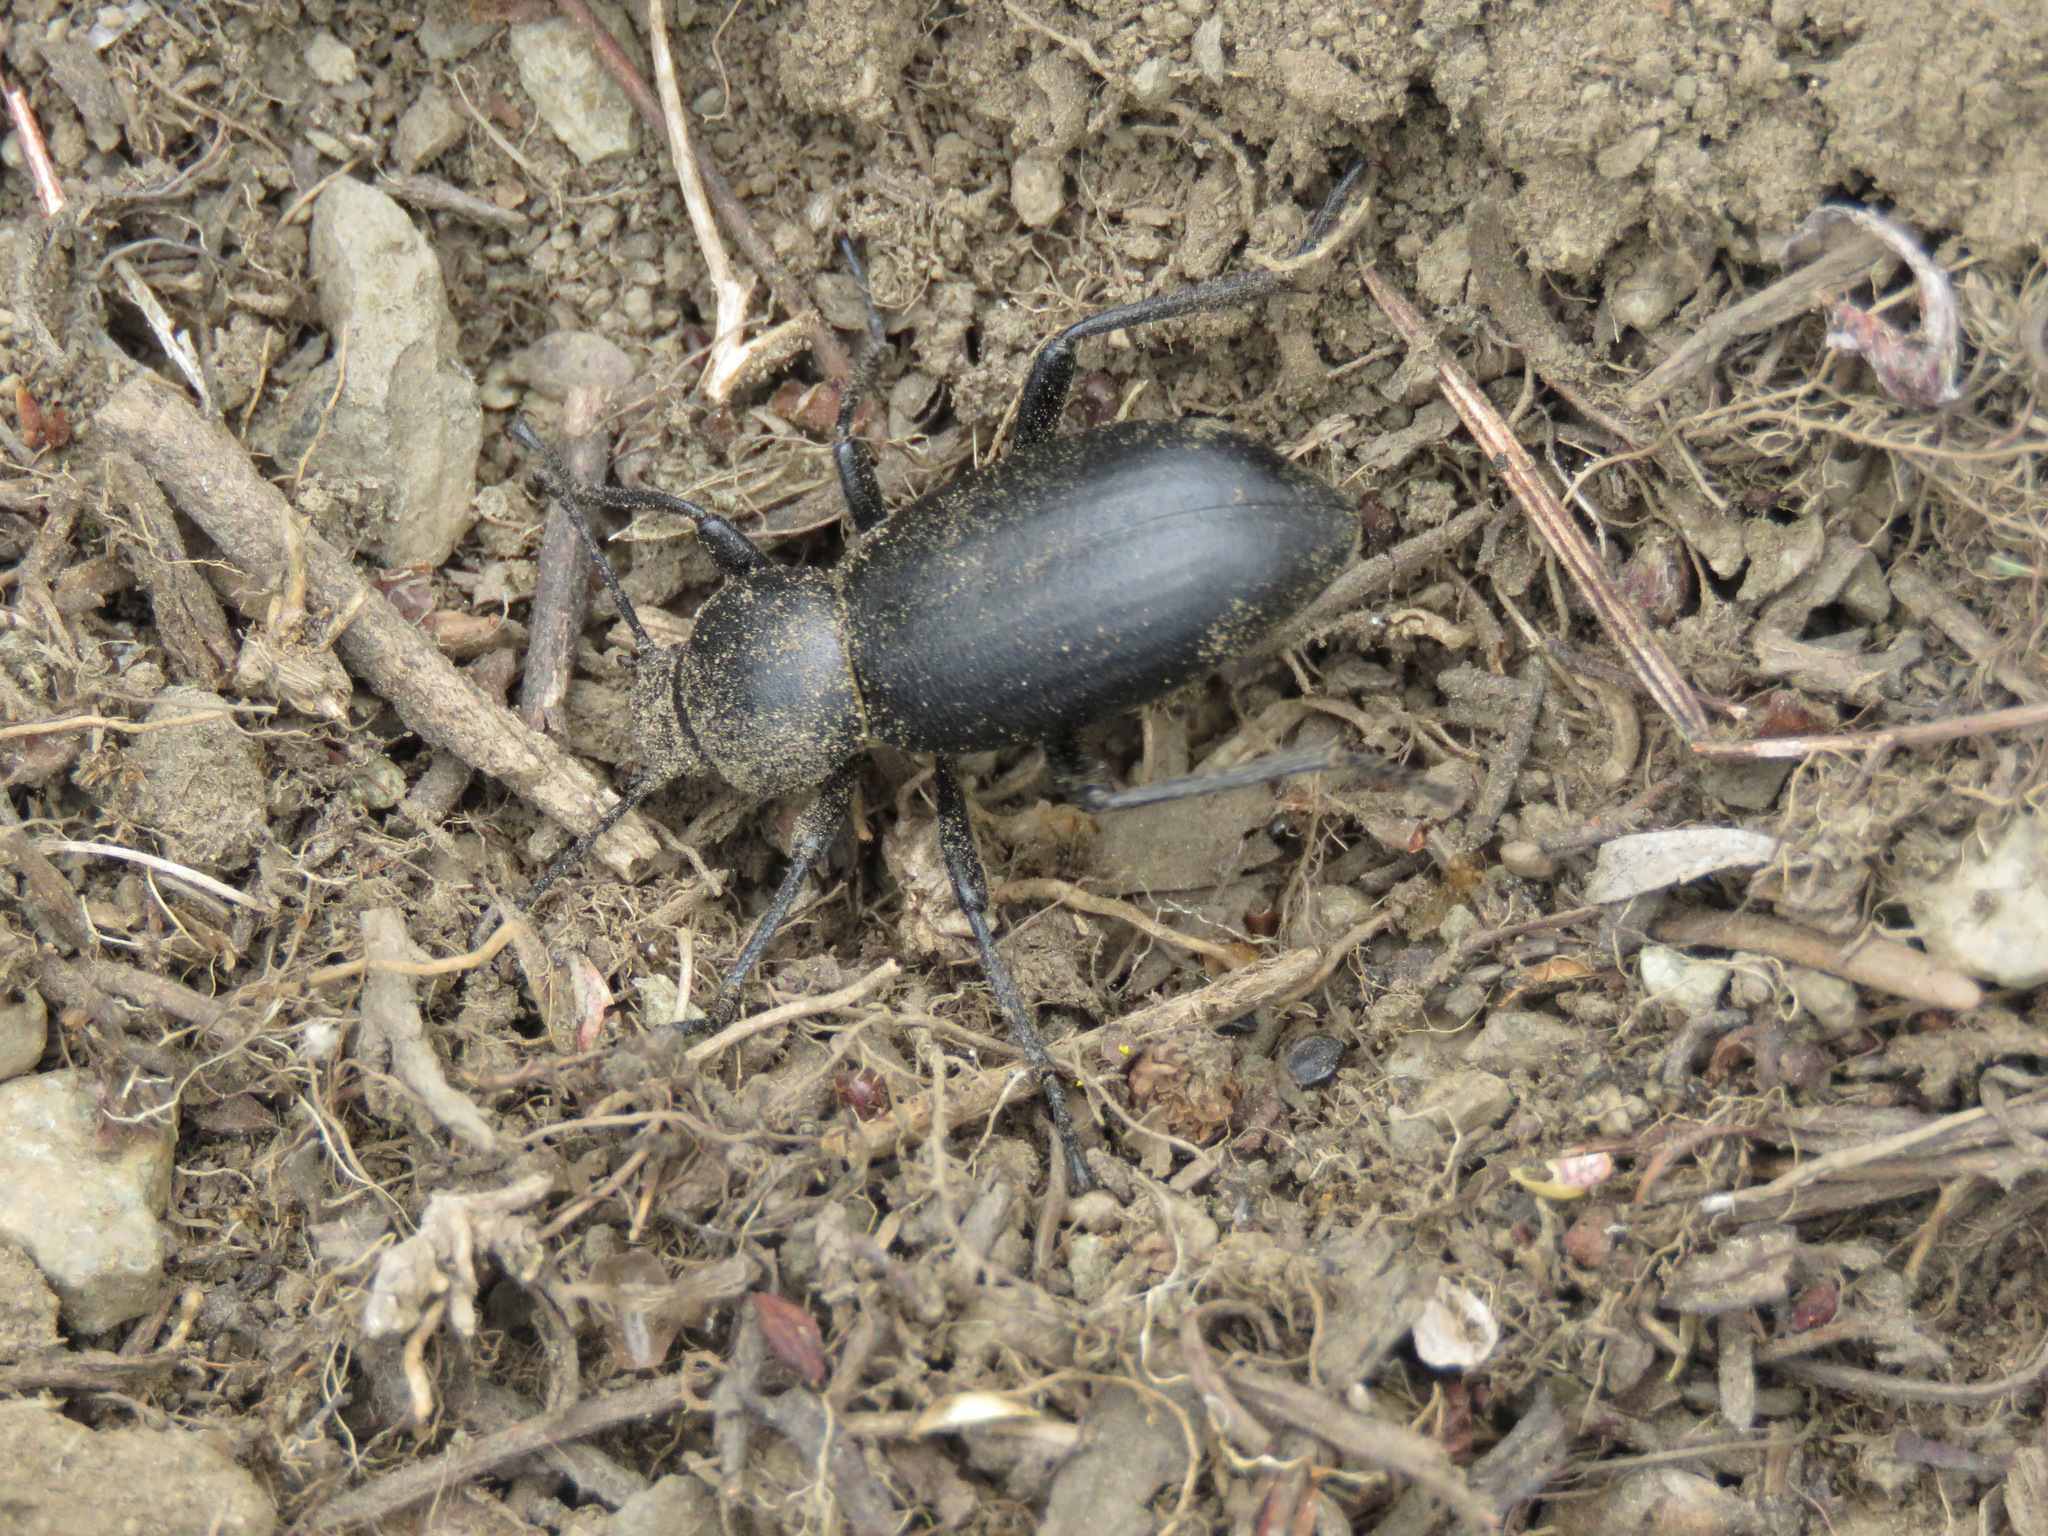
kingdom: Animalia
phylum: Arthropoda
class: Insecta
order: Coleoptera
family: Tenebrionidae
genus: Coelocnemis
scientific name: Coelocnemis dilaticollis
